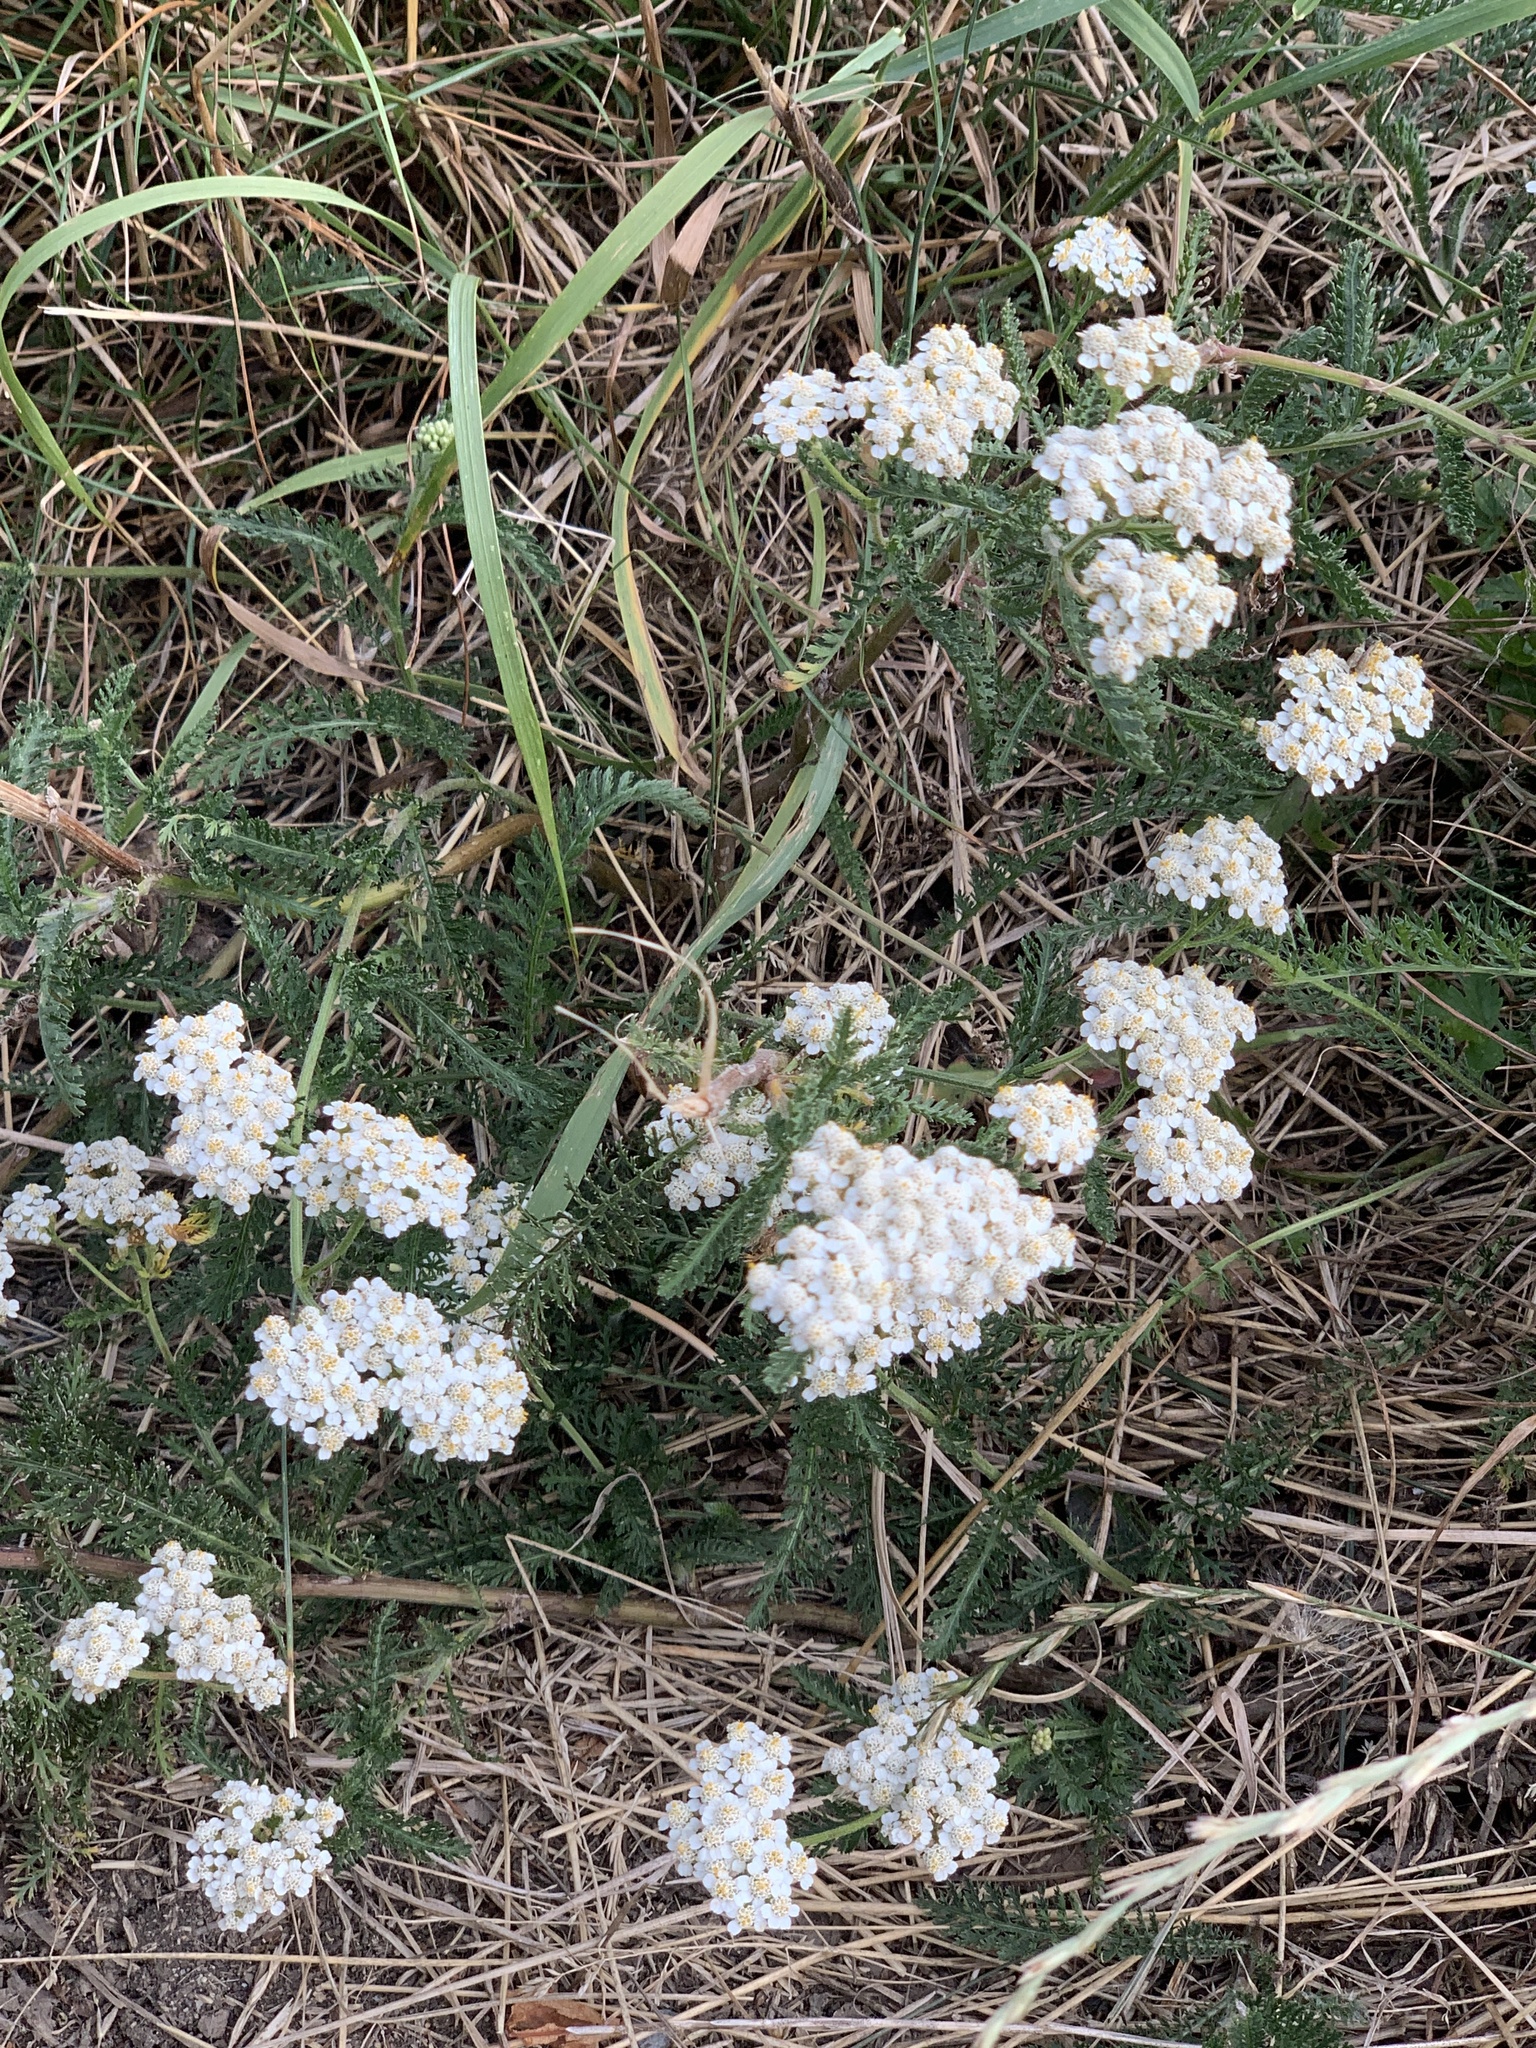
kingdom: Plantae
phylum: Tracheophyta
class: Magnoliopsida
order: Asterales
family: Asteraceae
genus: Achillea
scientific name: Achillea millefolium
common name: Yarrow
